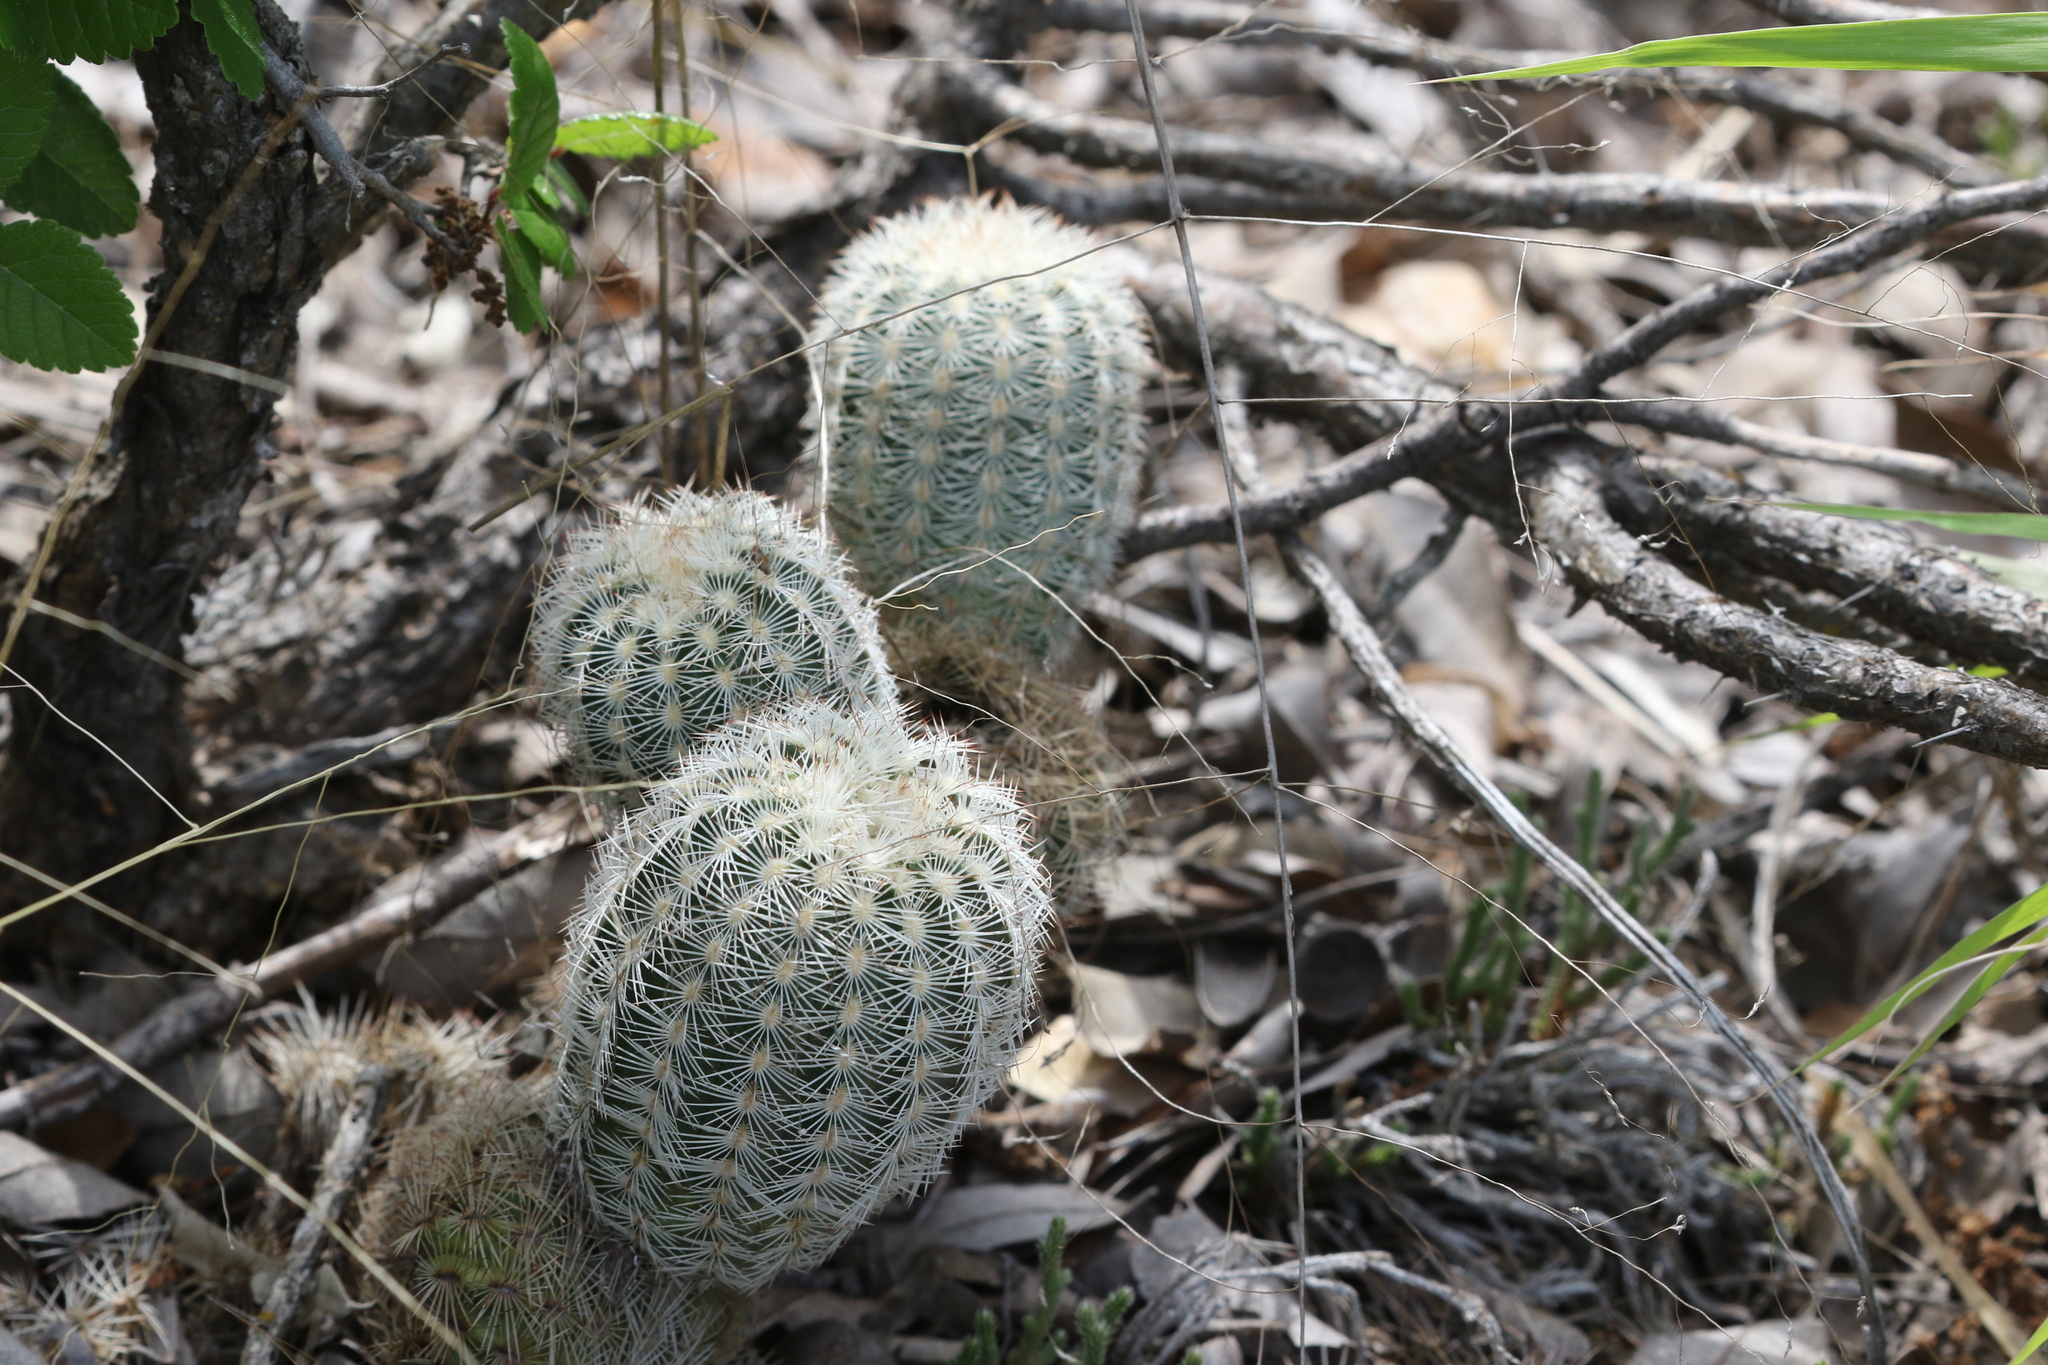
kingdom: Plantae
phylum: Tracheophyta
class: Magnoliopsida
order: Caryophyllales
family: Cactaceae
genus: Echinocereus
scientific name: Echinocereus reichenbachii
